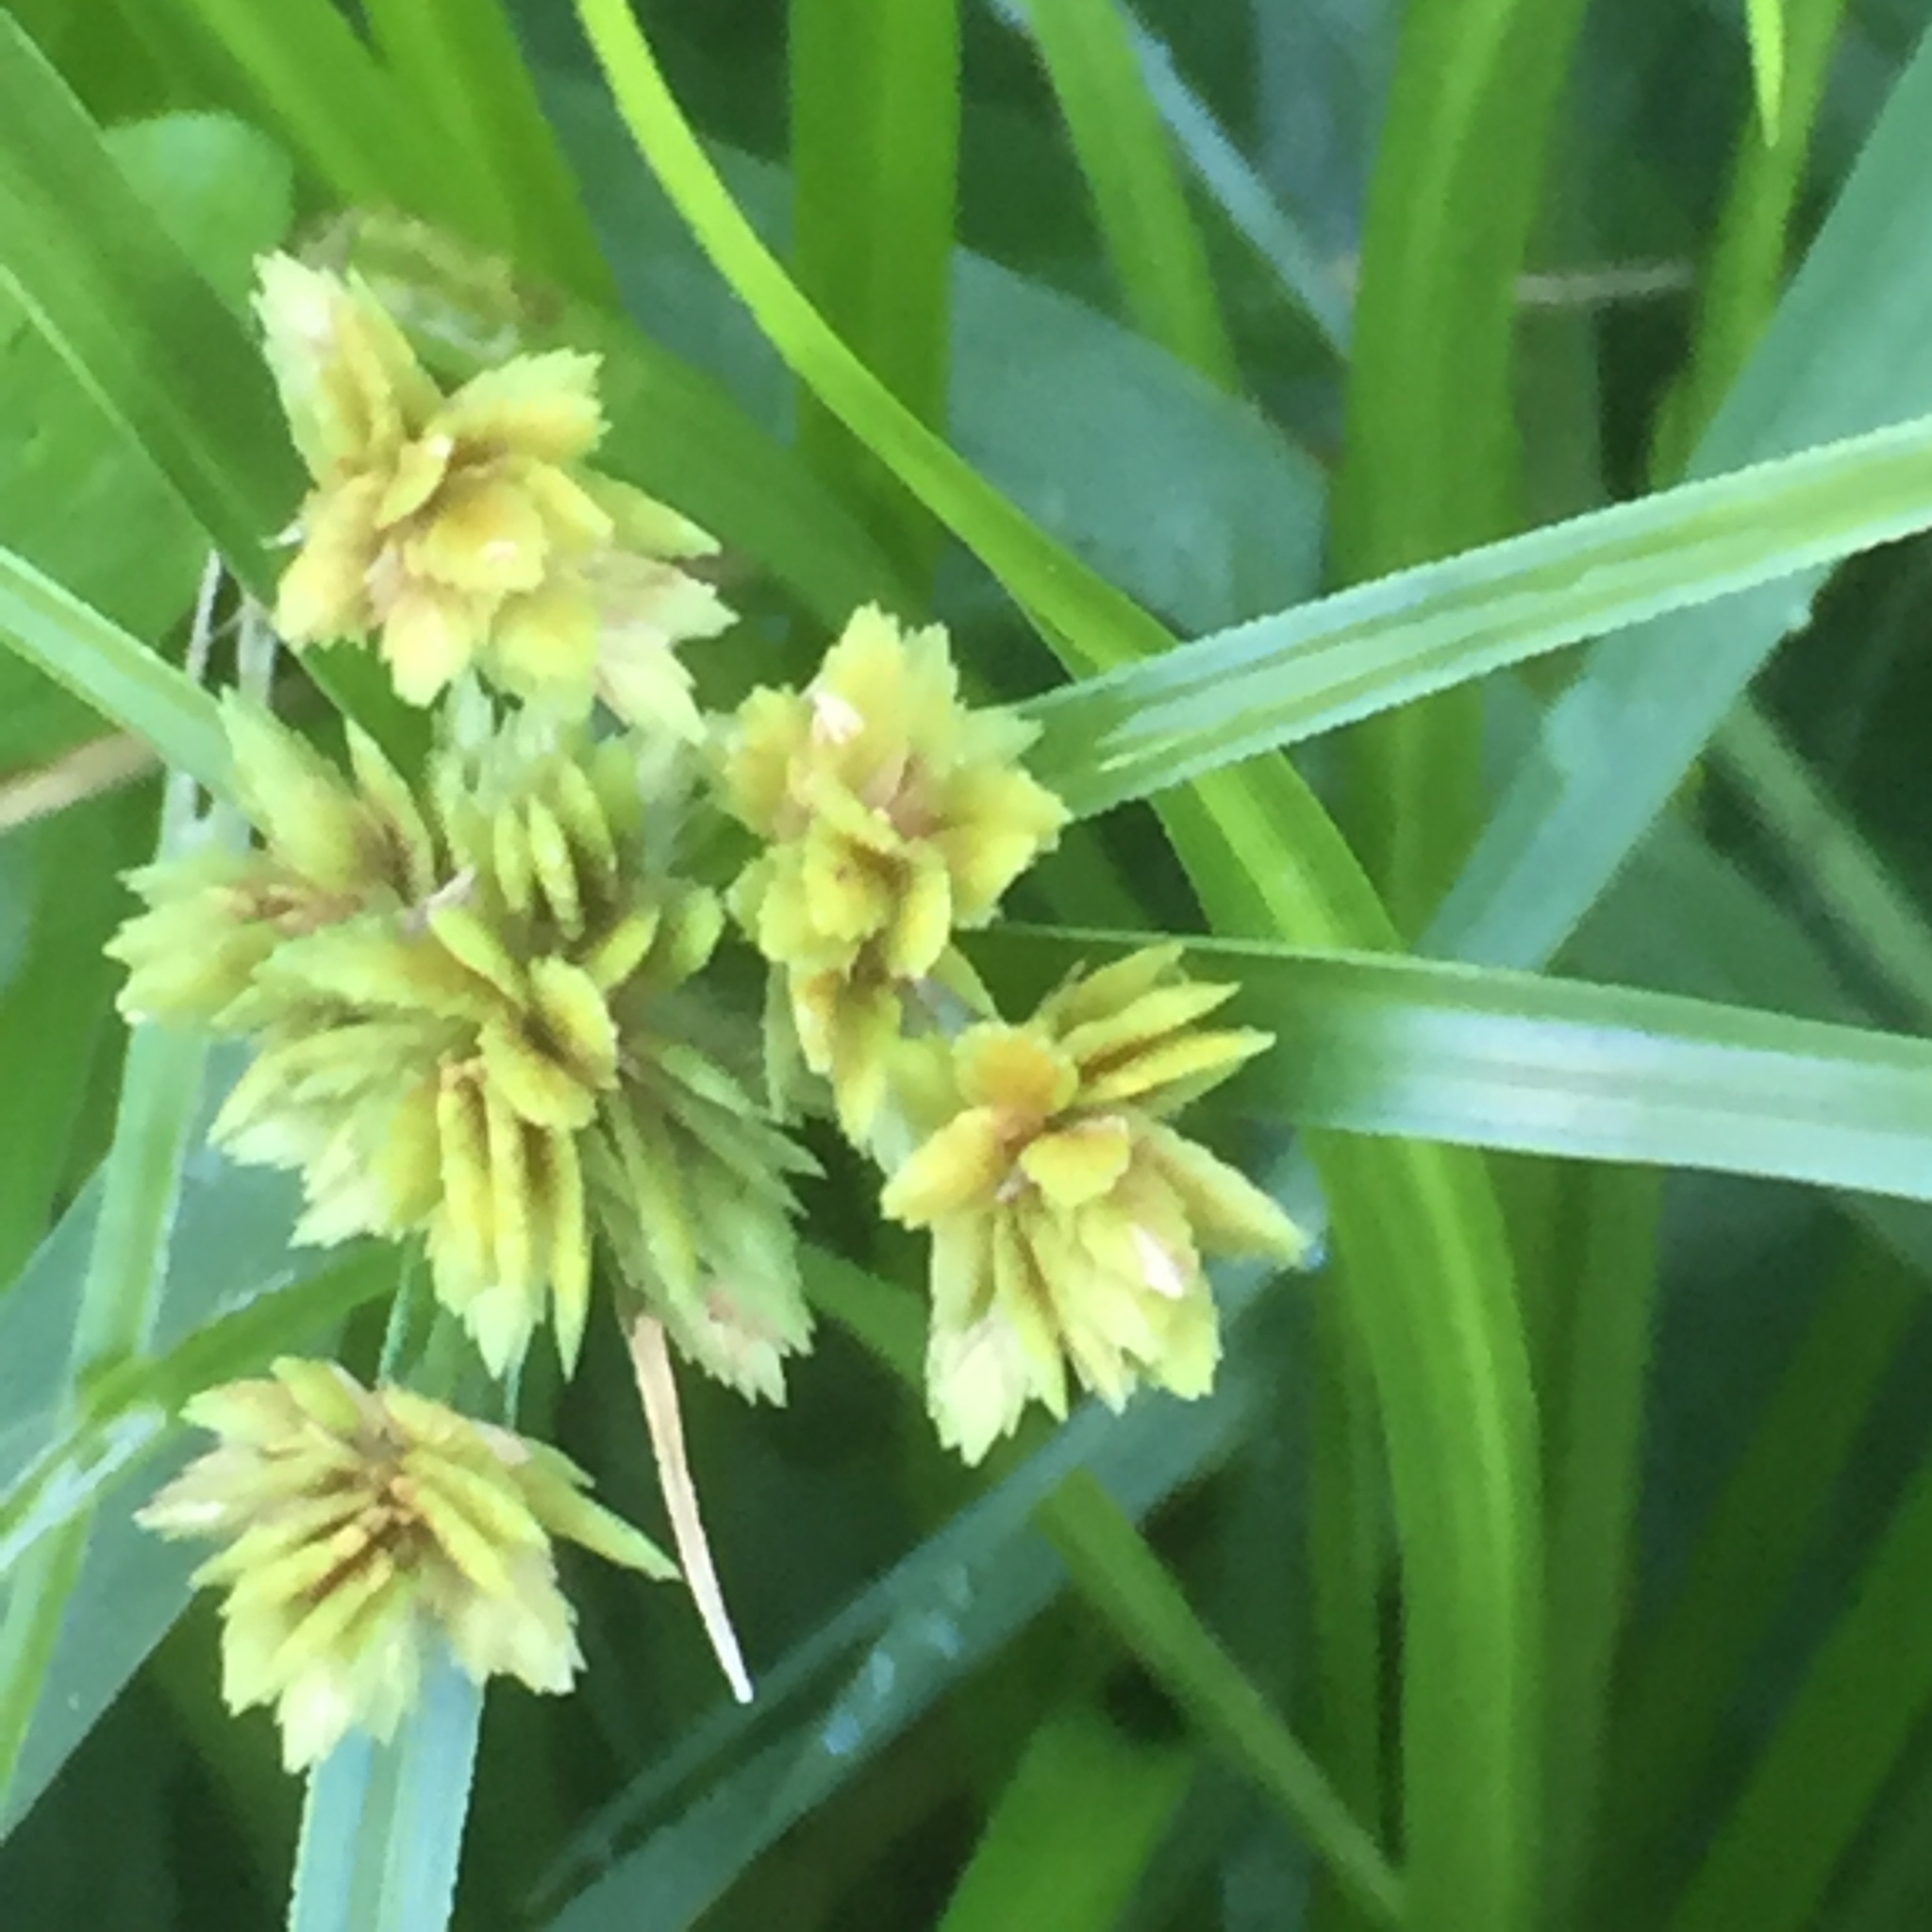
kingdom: Plantae
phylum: Tracheophyta
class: Liliopsida
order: Poales
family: Cyperaceae
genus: Cyperus
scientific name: Cyperus eragrostis
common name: Tall flatsedge
